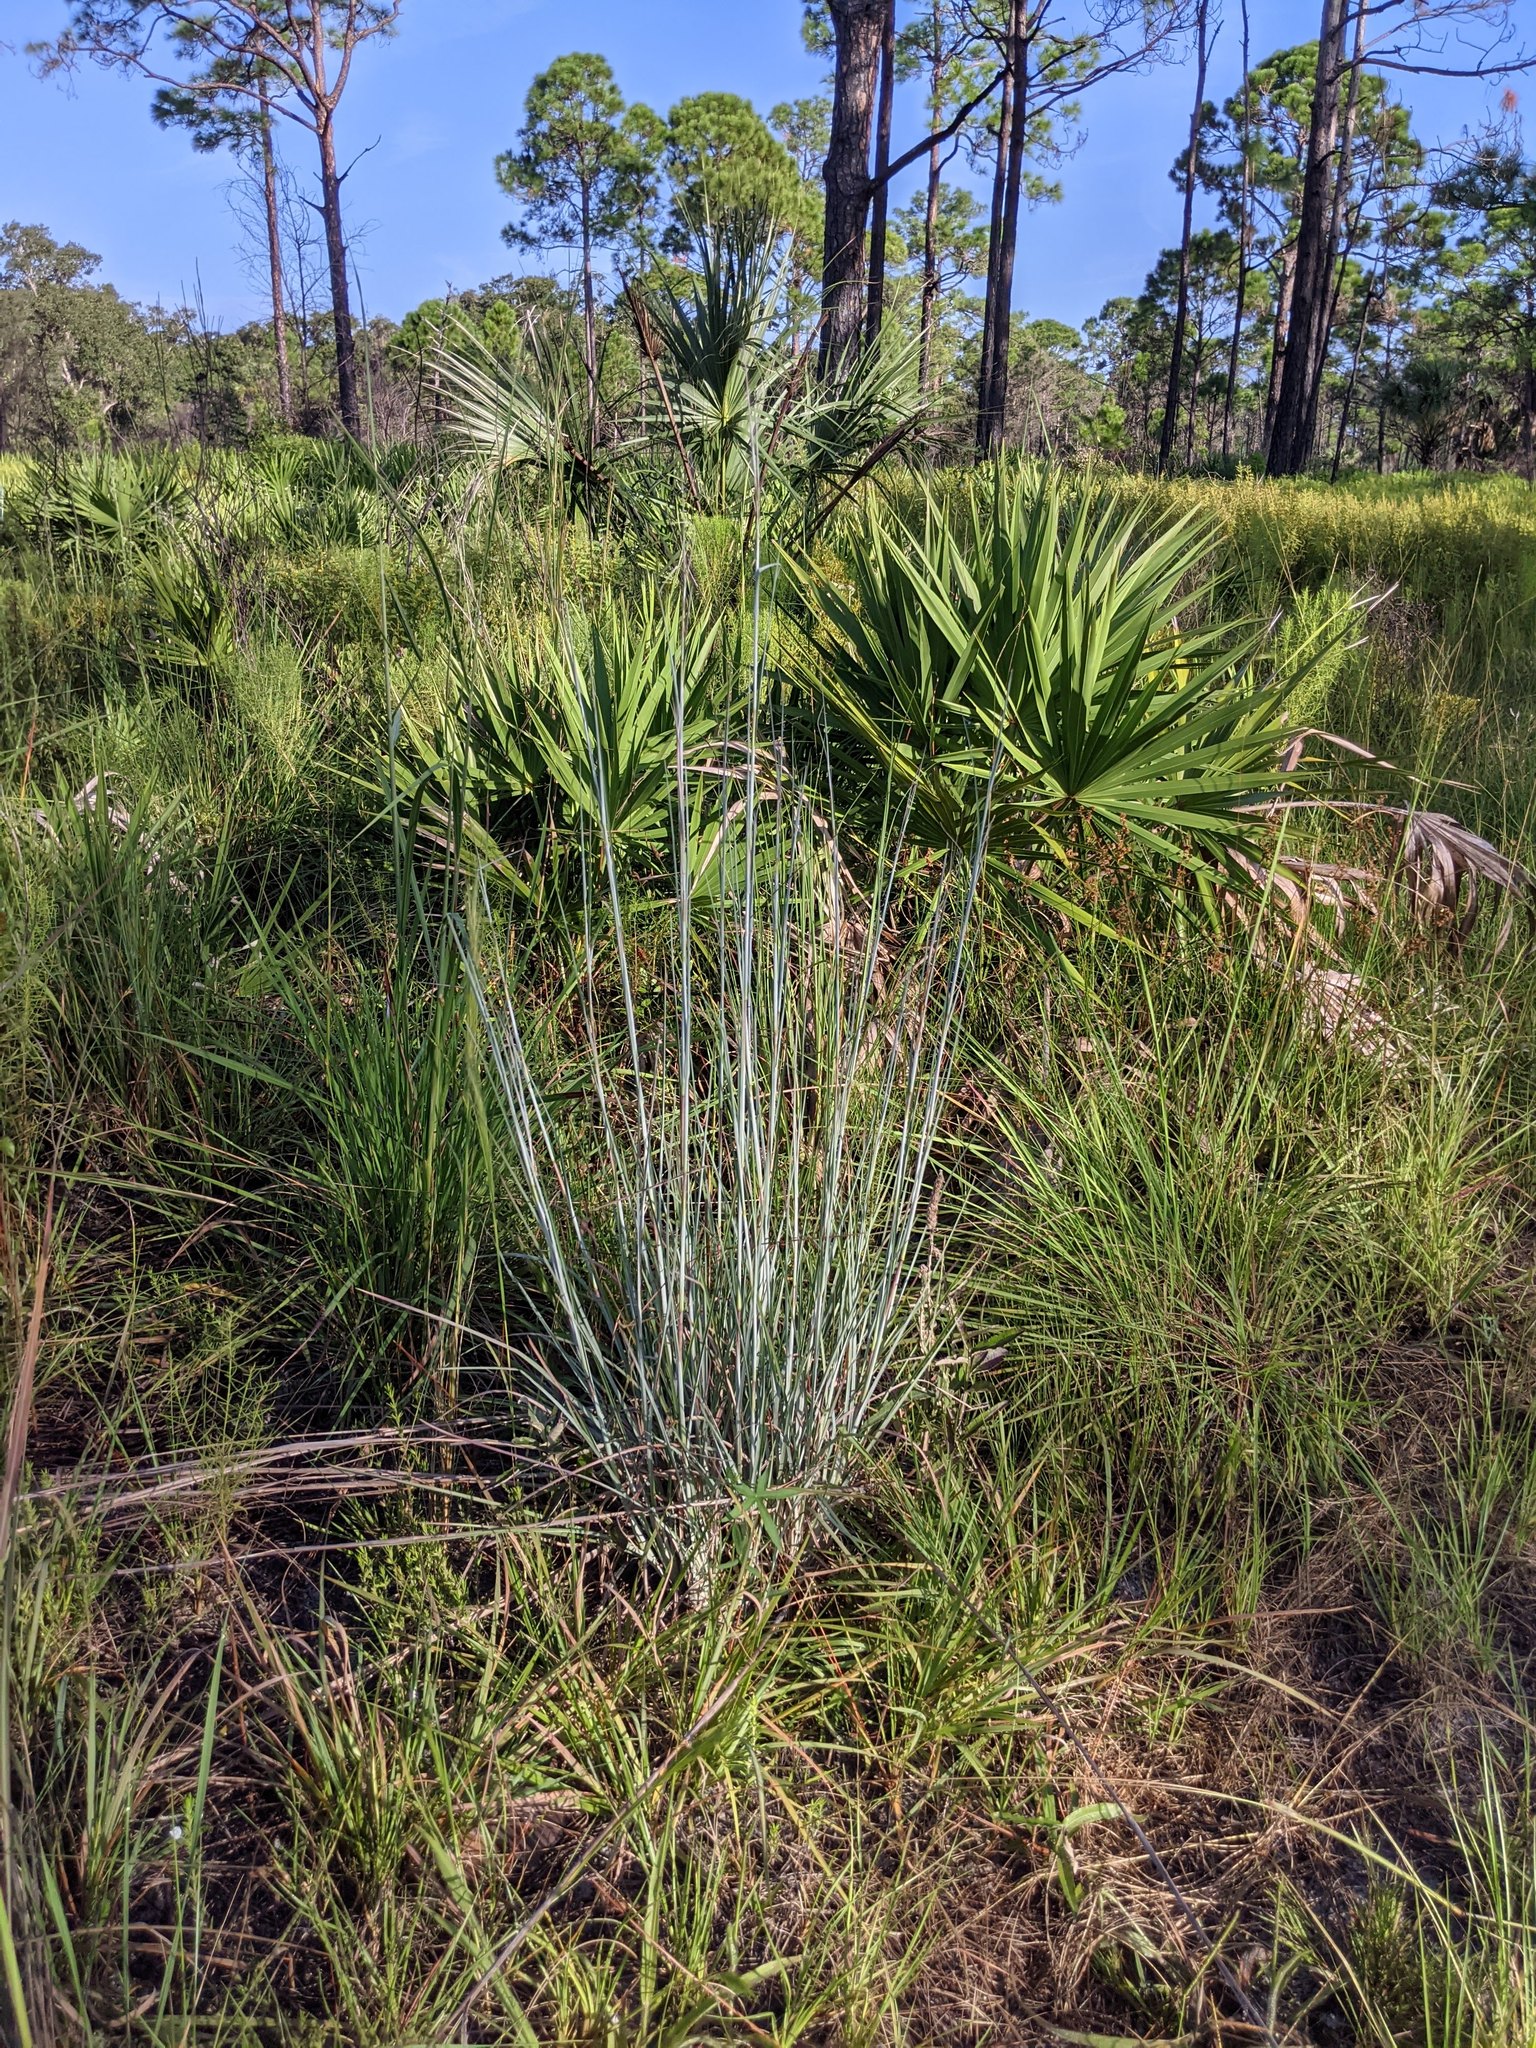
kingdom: Plantae
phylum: Tracheophyta
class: Liliopsida
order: Poales
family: Poaceae
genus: Andropogon
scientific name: Andropogon capillipes
